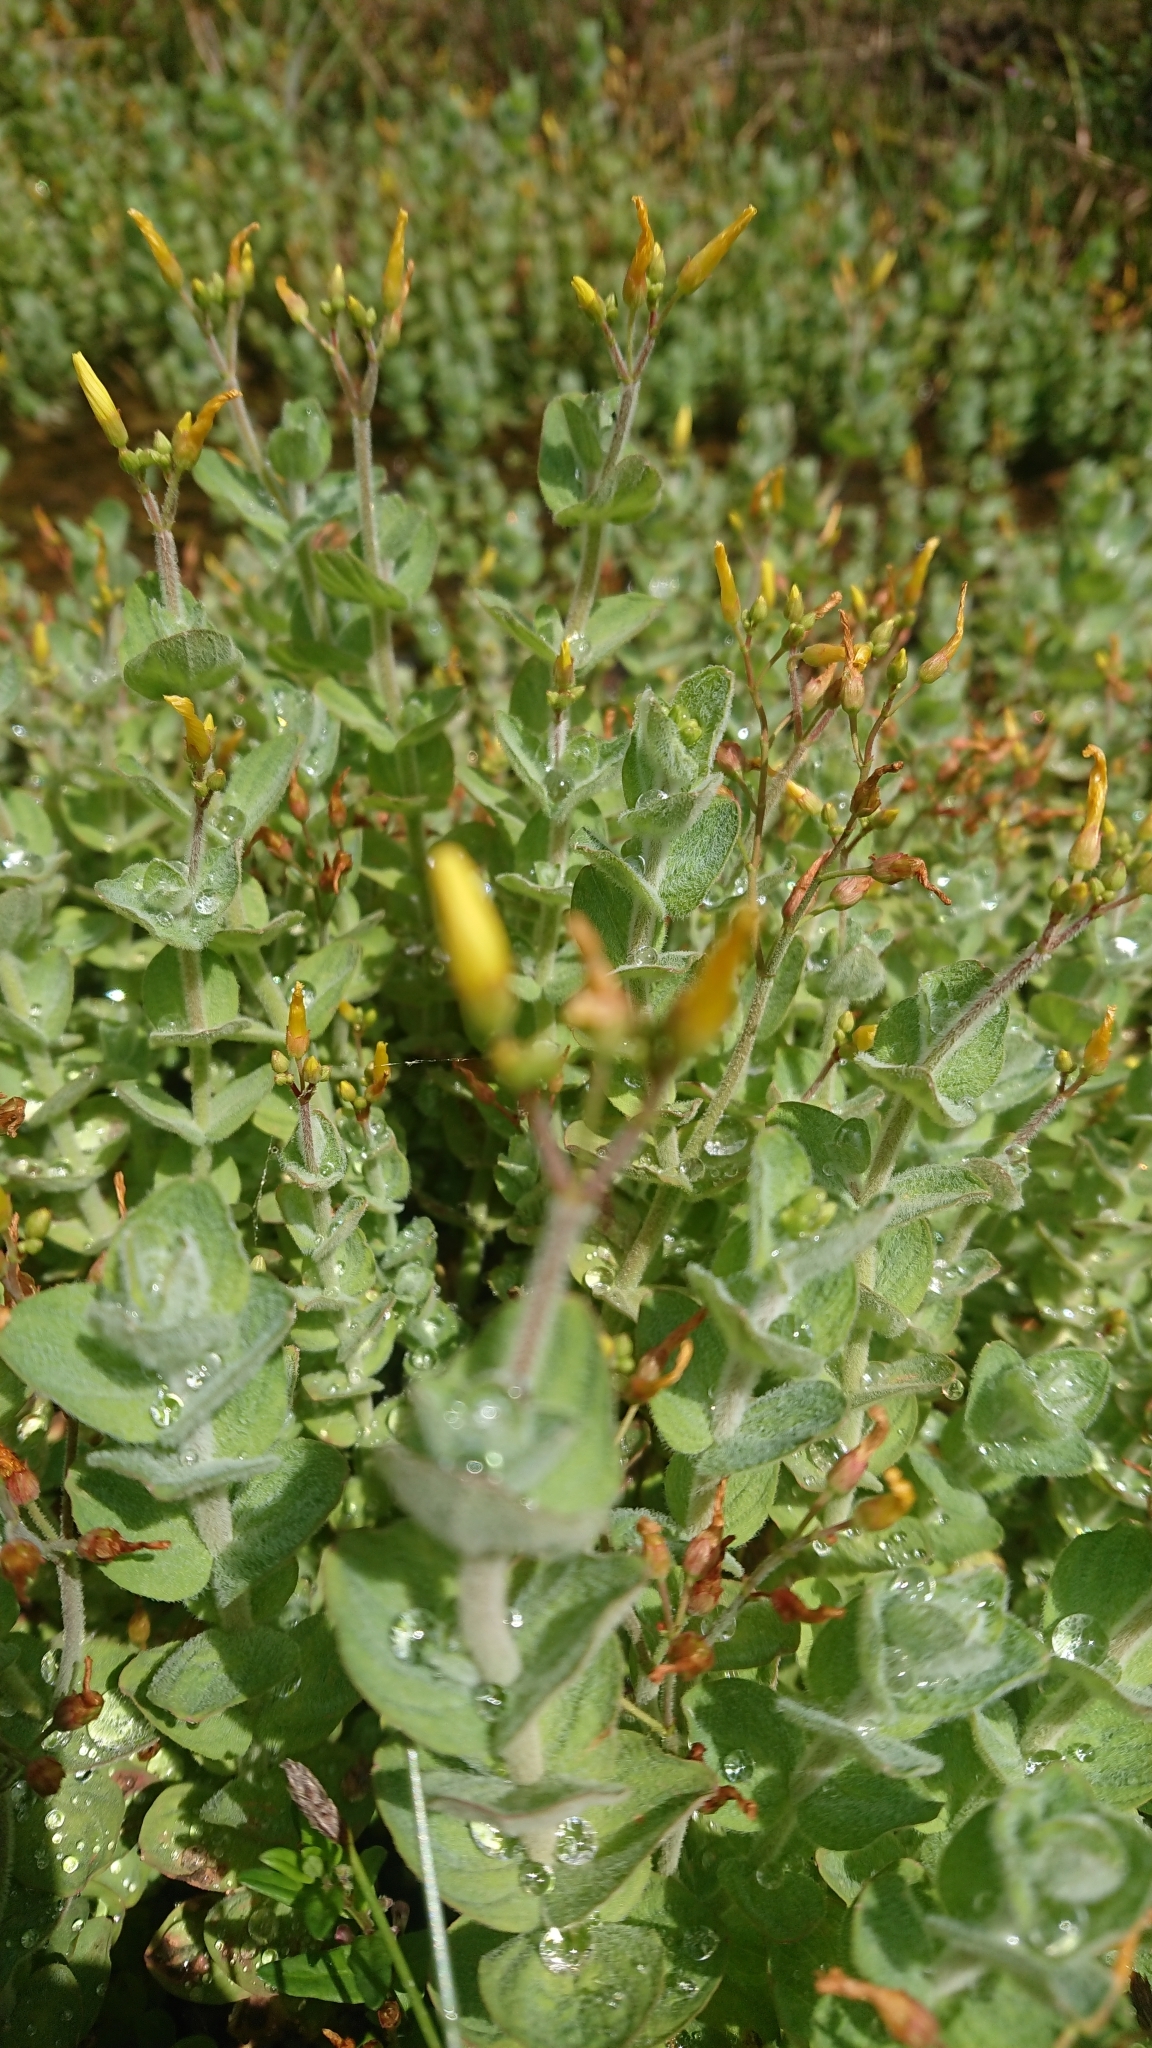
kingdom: Plantae
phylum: Tracheophyta
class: Magnoliopsida
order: Malpighiales
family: Hypericaceae
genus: Hypericum
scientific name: Hypericum elodes
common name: Marsh st. john's-wort
